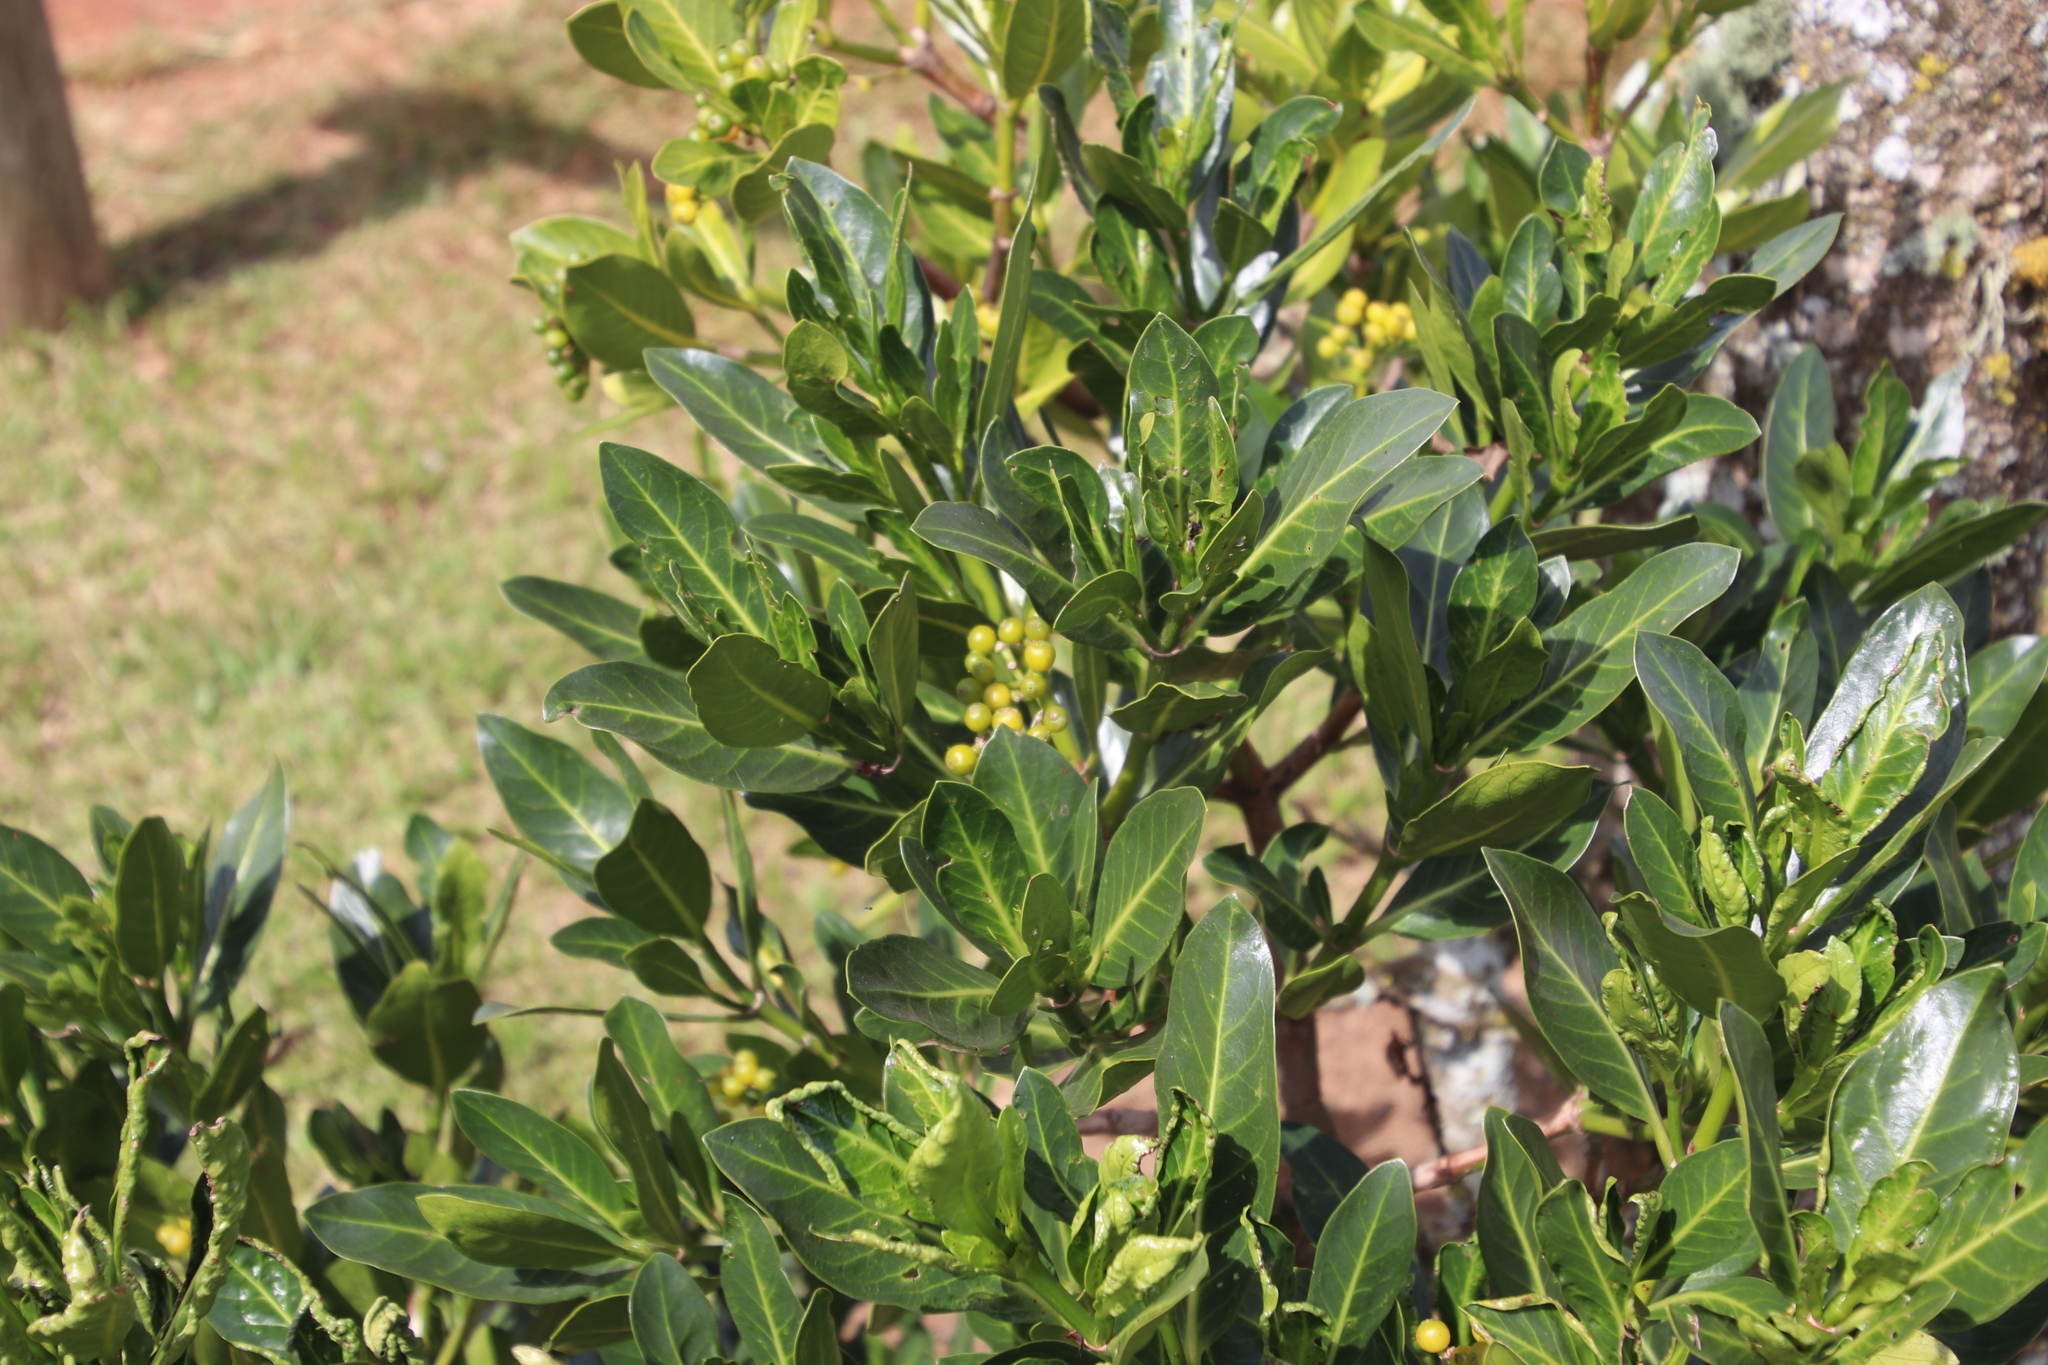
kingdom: Plantae
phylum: Tracheophyta
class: Magnoliopsida
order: Gentianales
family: Rubiaceae
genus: Psychotria
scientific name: Psychotria
